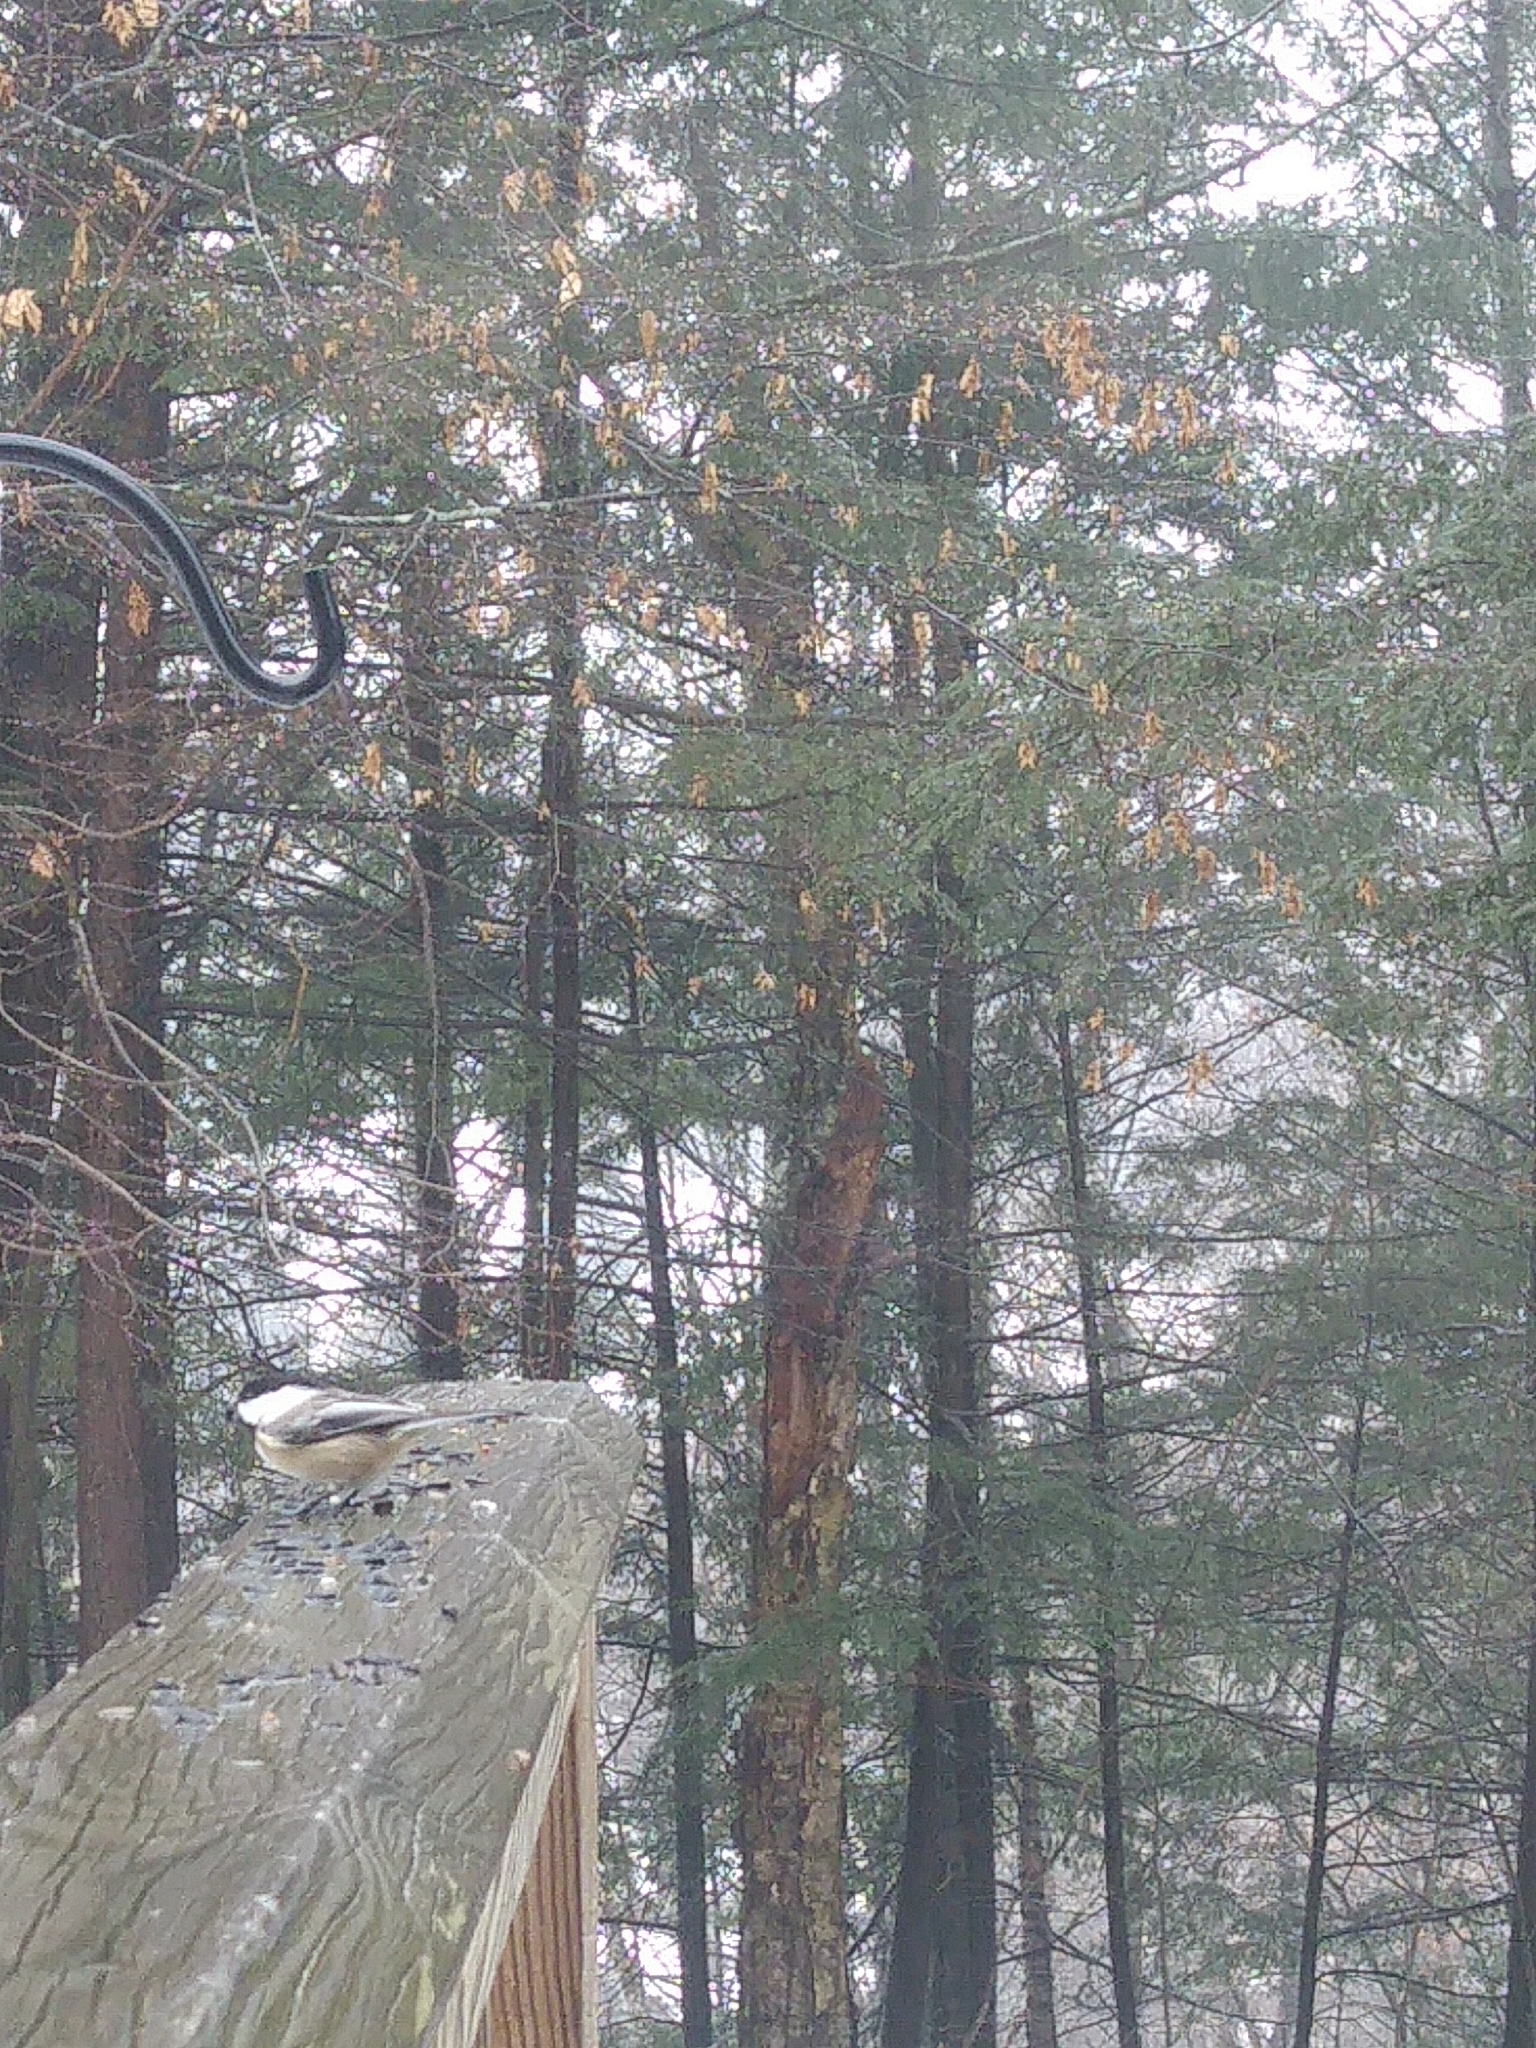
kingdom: Animalia
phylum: Chordata
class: Aves
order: Passeriformes
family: Paridae
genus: Poecile
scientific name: Poecile atricapillus
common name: Black-capped chickadee
